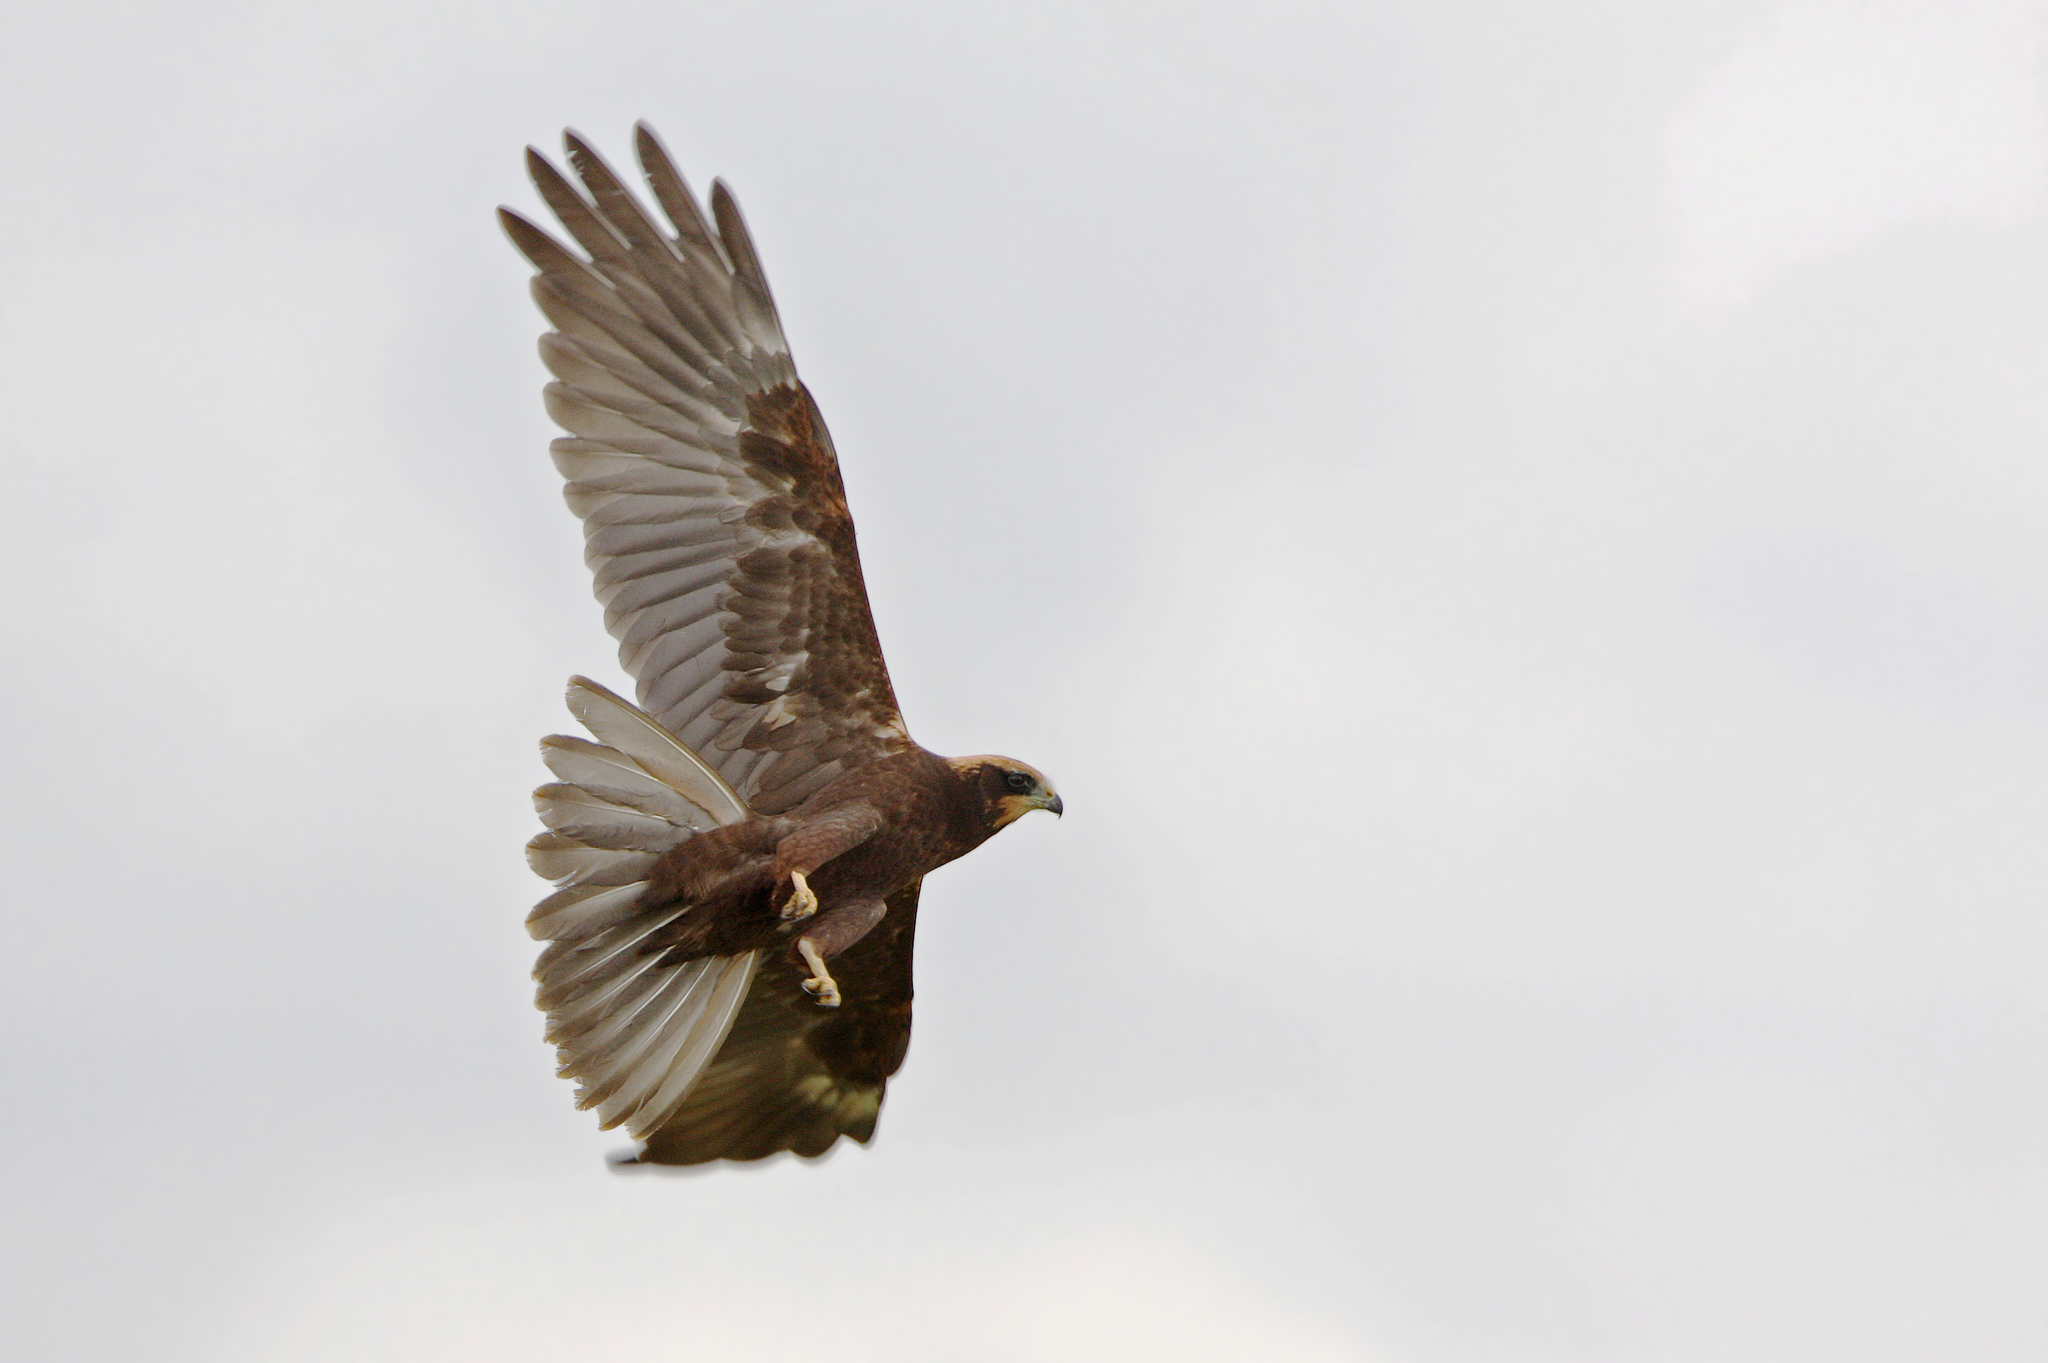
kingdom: Animalia
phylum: Chordata
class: Aves
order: Accipitriformes
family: Accipitridae
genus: Circus
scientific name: Circus aeruginosus
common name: Western marsh harrier
